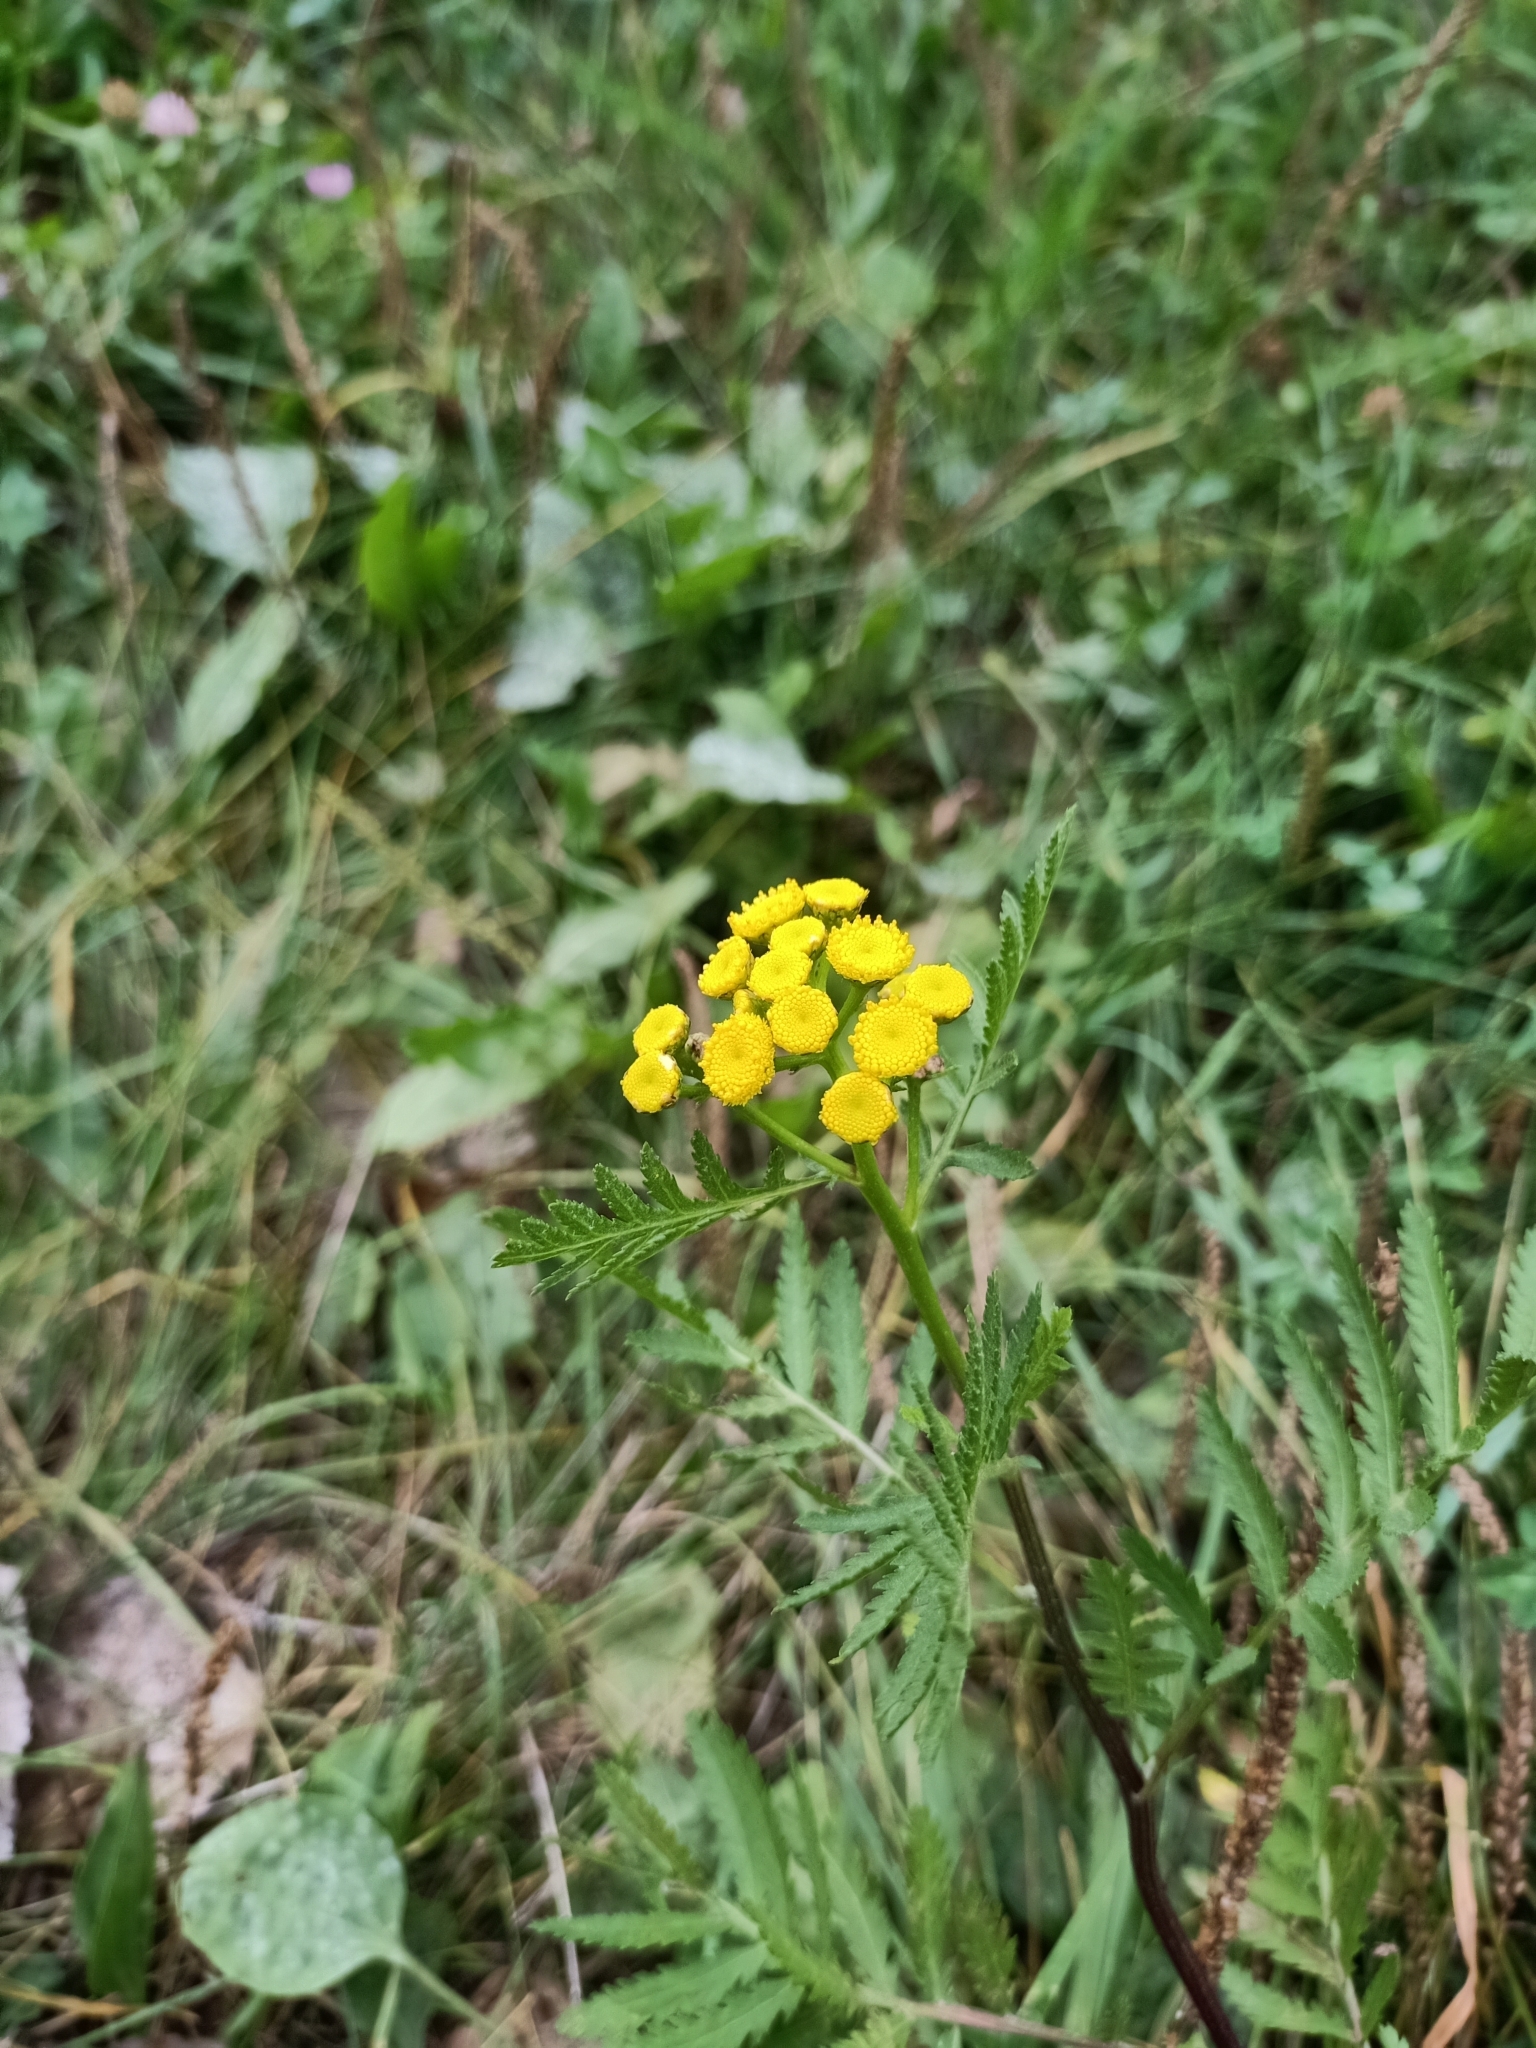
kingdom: Plantae
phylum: Tracheophyta
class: Magnoliopsida
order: Asterales
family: Asteraceae
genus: Tanacetum
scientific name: Tanacetum vulgare
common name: Common tansy
